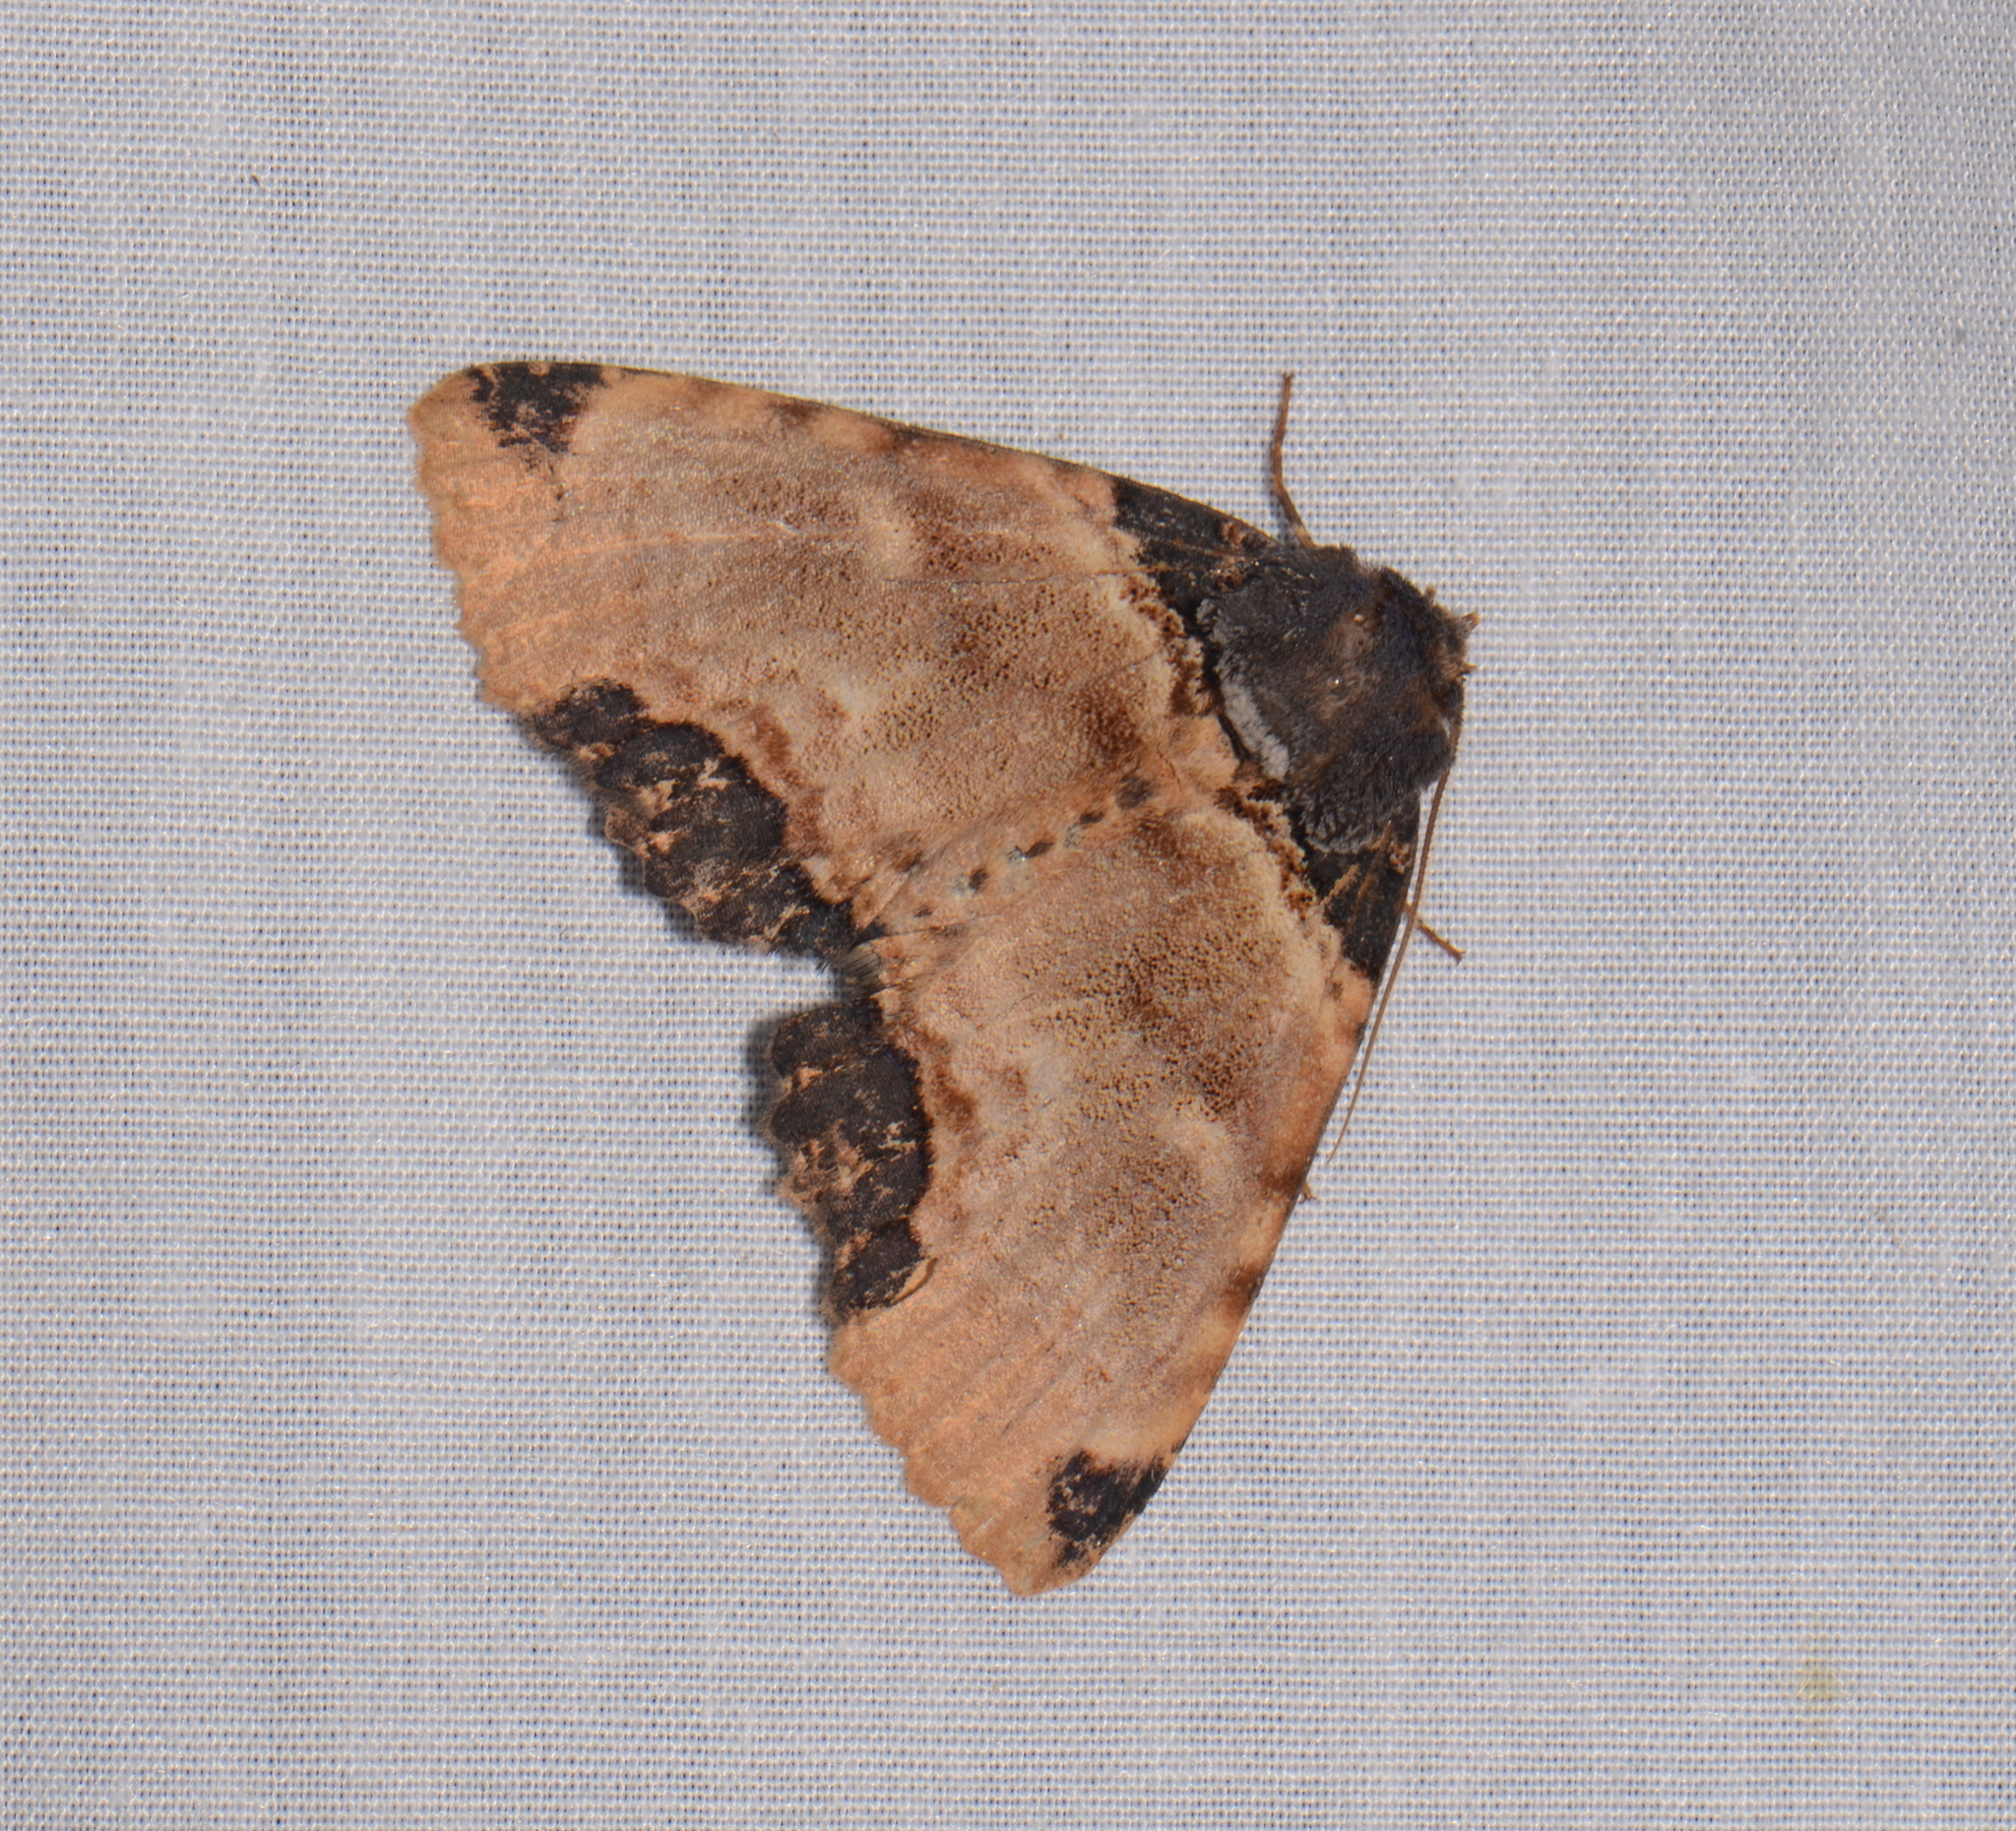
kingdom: Animalia
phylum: Arthropoda
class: Insecta
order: Lepidoptera
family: Erebidae
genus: Sypnoides
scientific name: Sypnoides pannosa
